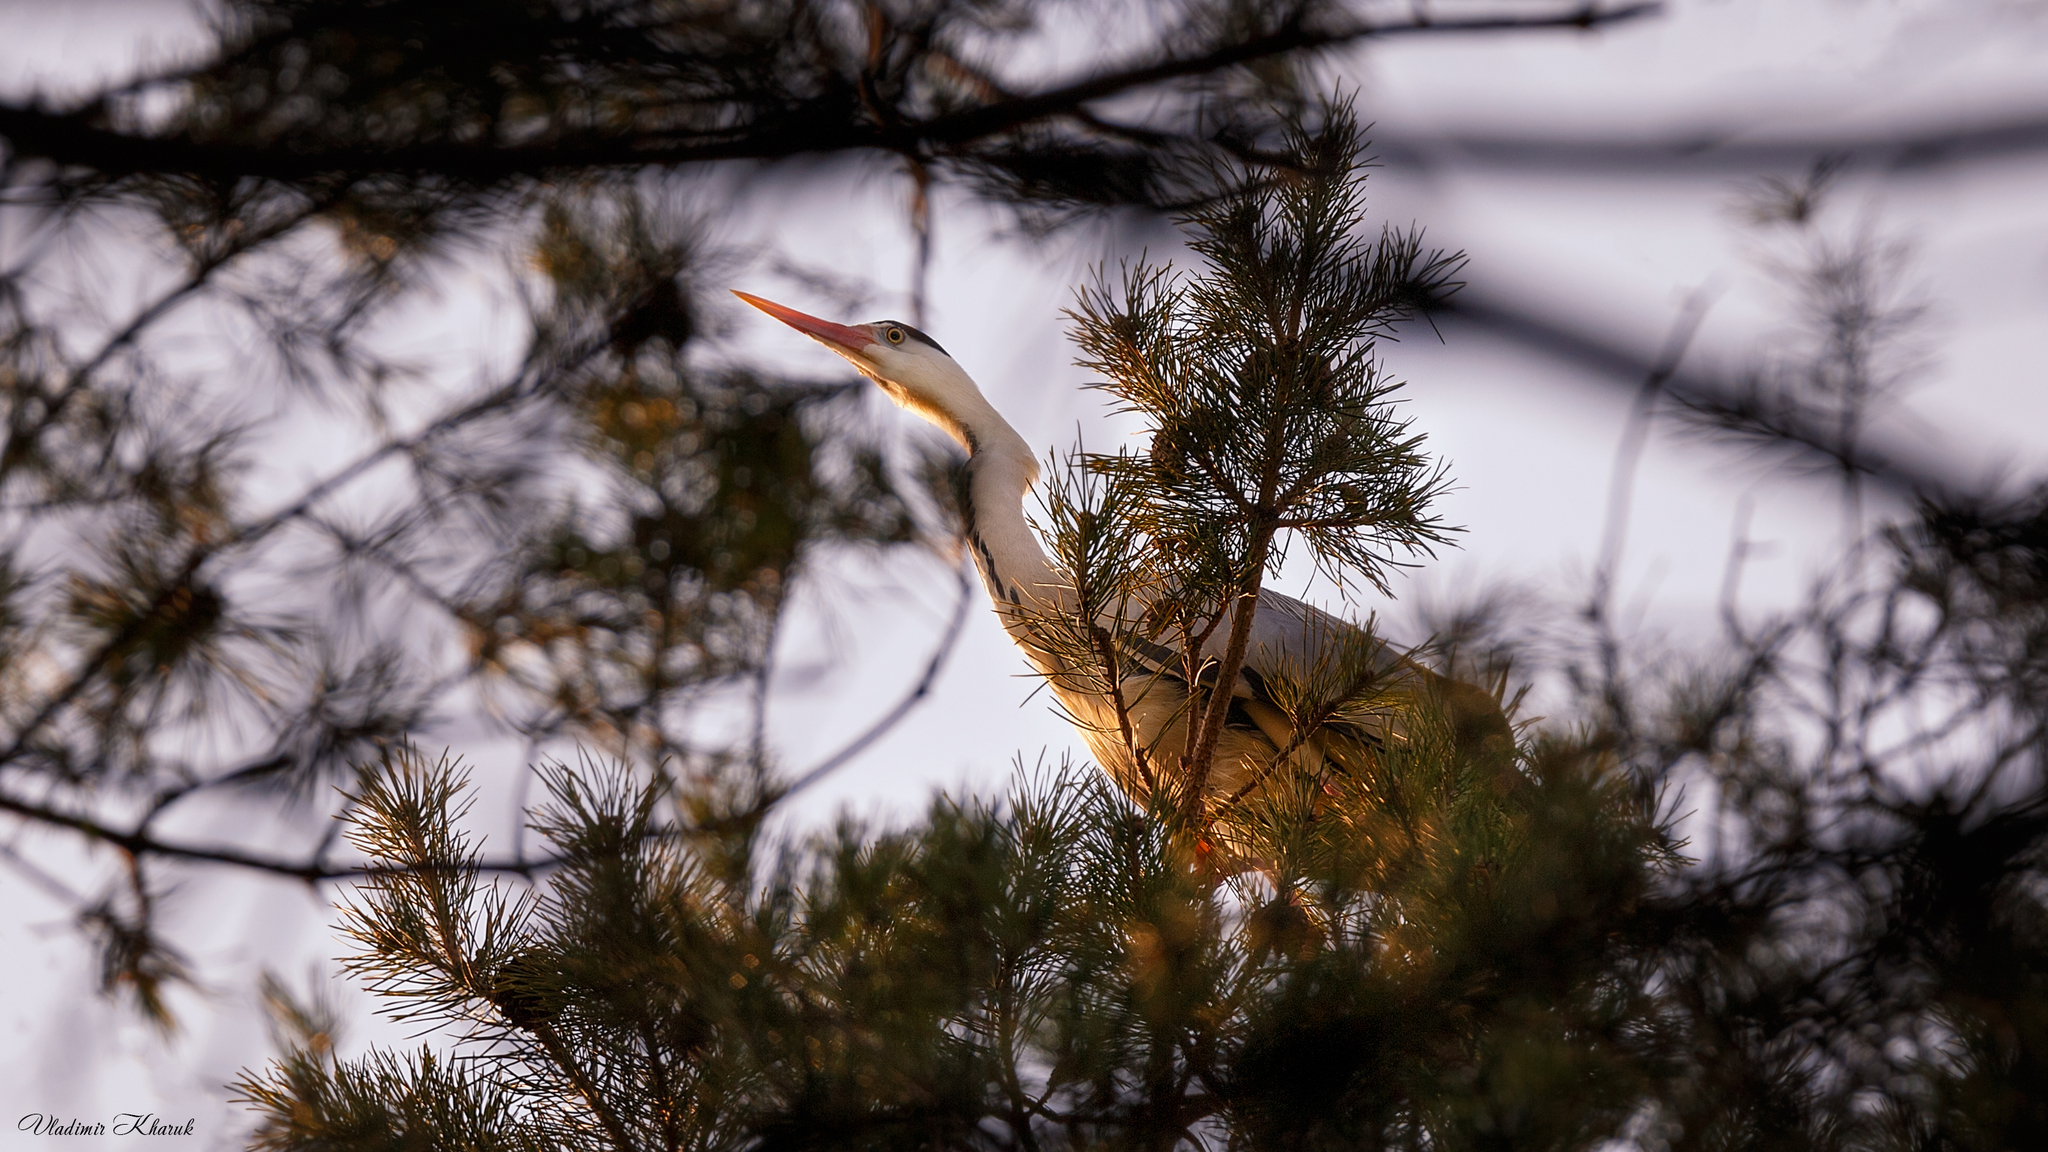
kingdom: Animalia
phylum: Chordata
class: Aves
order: Pelecaniformes
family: Ardeidae
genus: Ardea
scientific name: Ardea cinerea
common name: Grey heron
